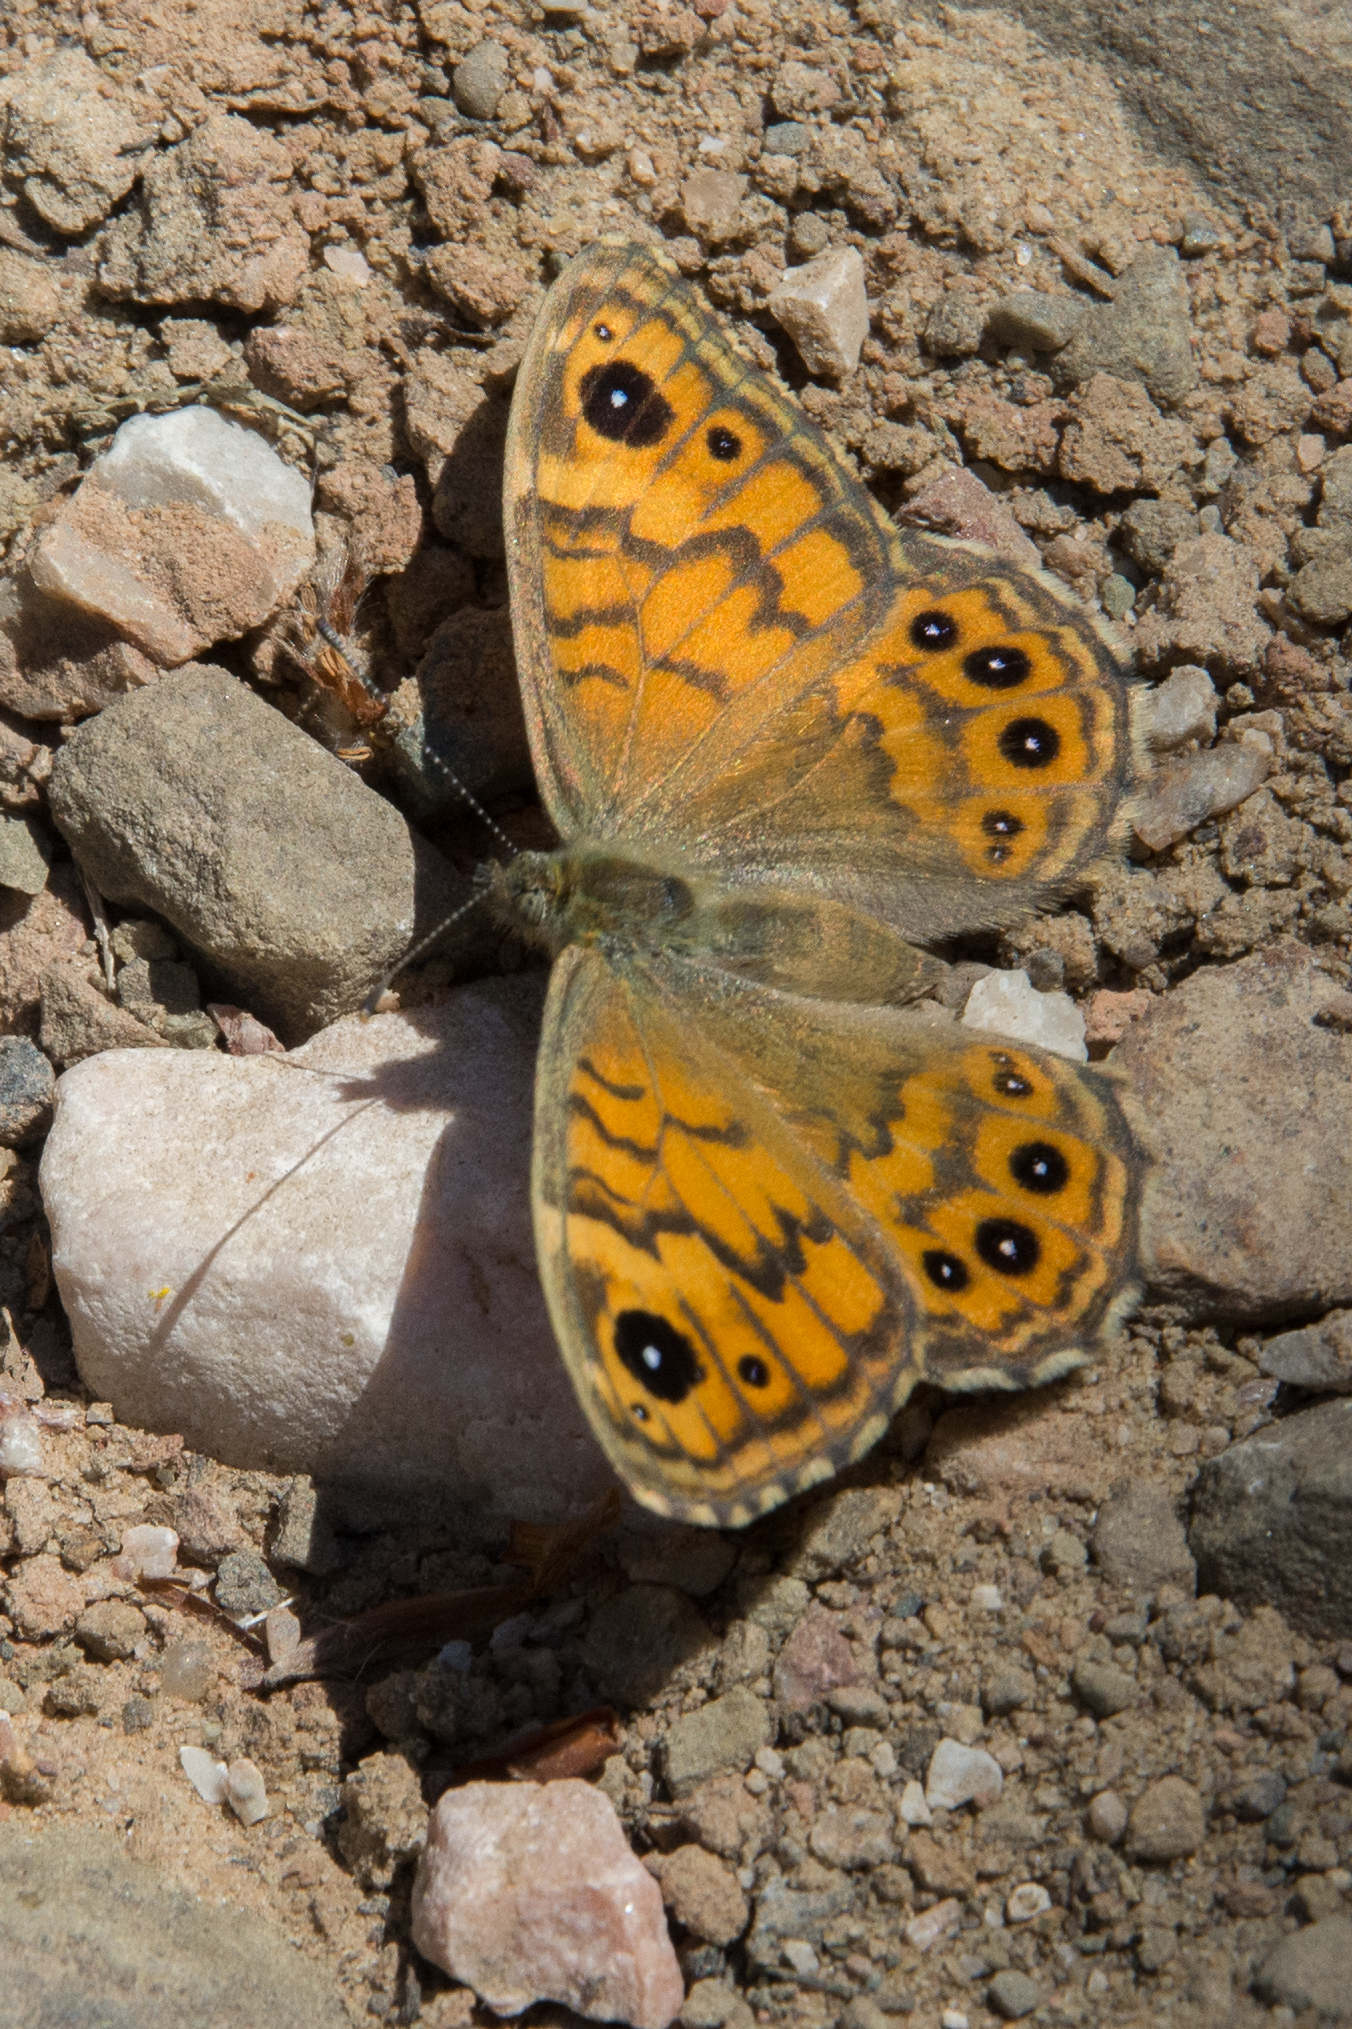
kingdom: Animalia
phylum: Arthropoda
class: Insecta
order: Lepidoptera
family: Nymphalidae
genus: Pararge
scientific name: Pararge Lasiommata megera
